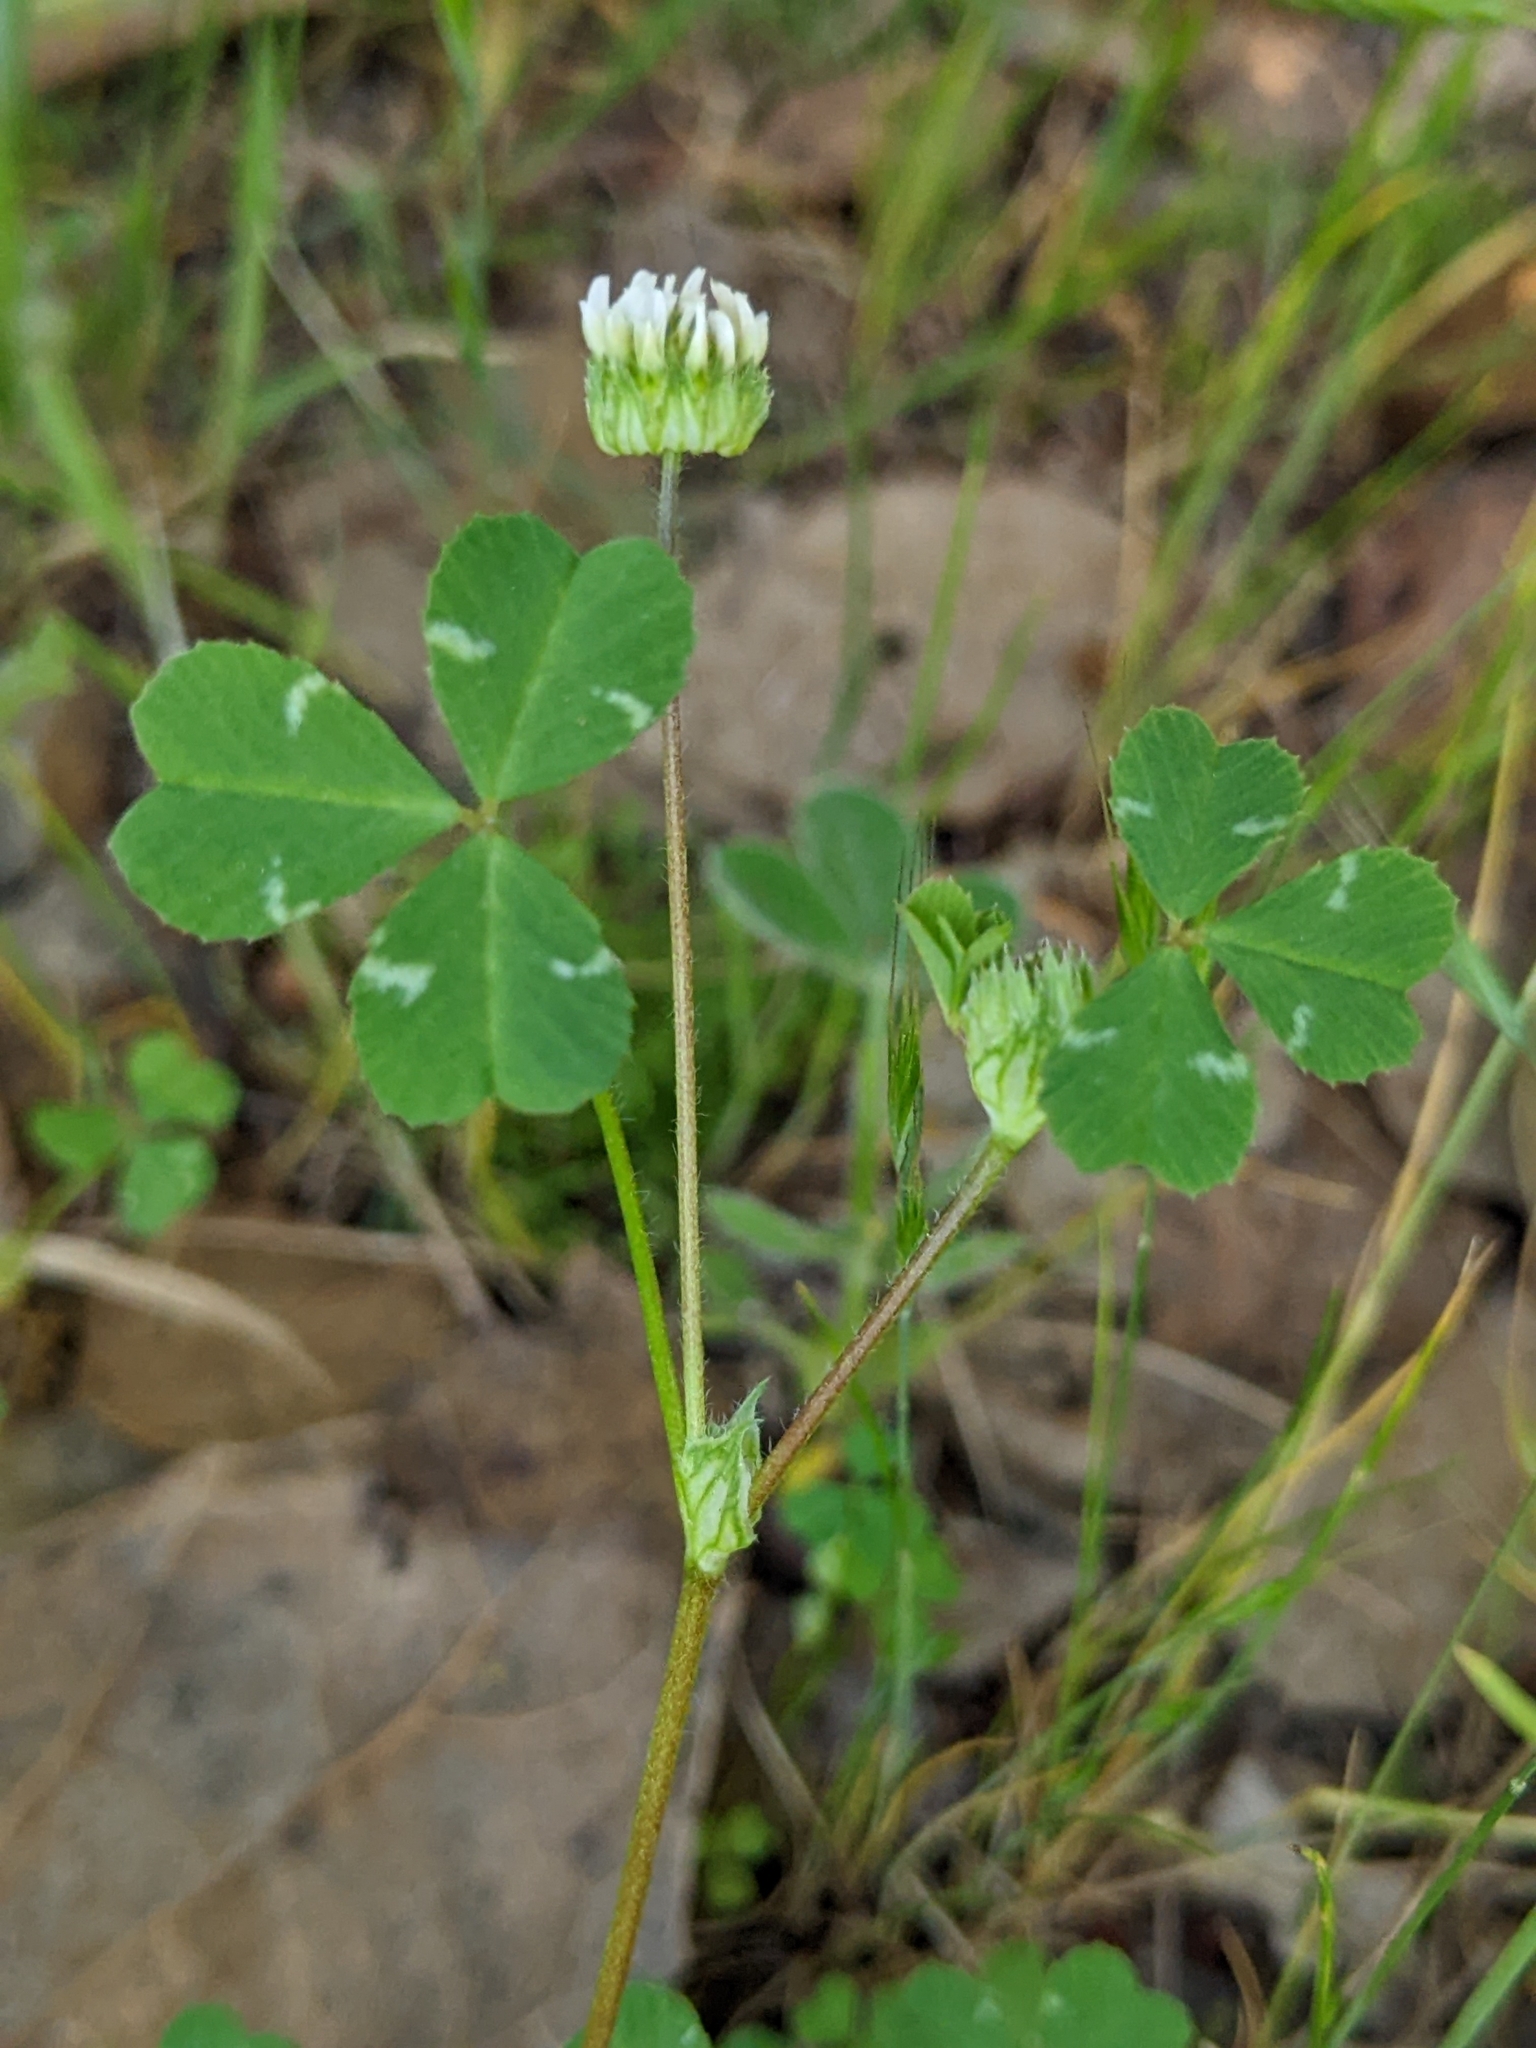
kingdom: Plantae
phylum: Tracheophyta
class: Magnoliopsida
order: Fabales
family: Fabaceae
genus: Trifolium
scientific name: Trifolium microdon
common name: Thimble clover
